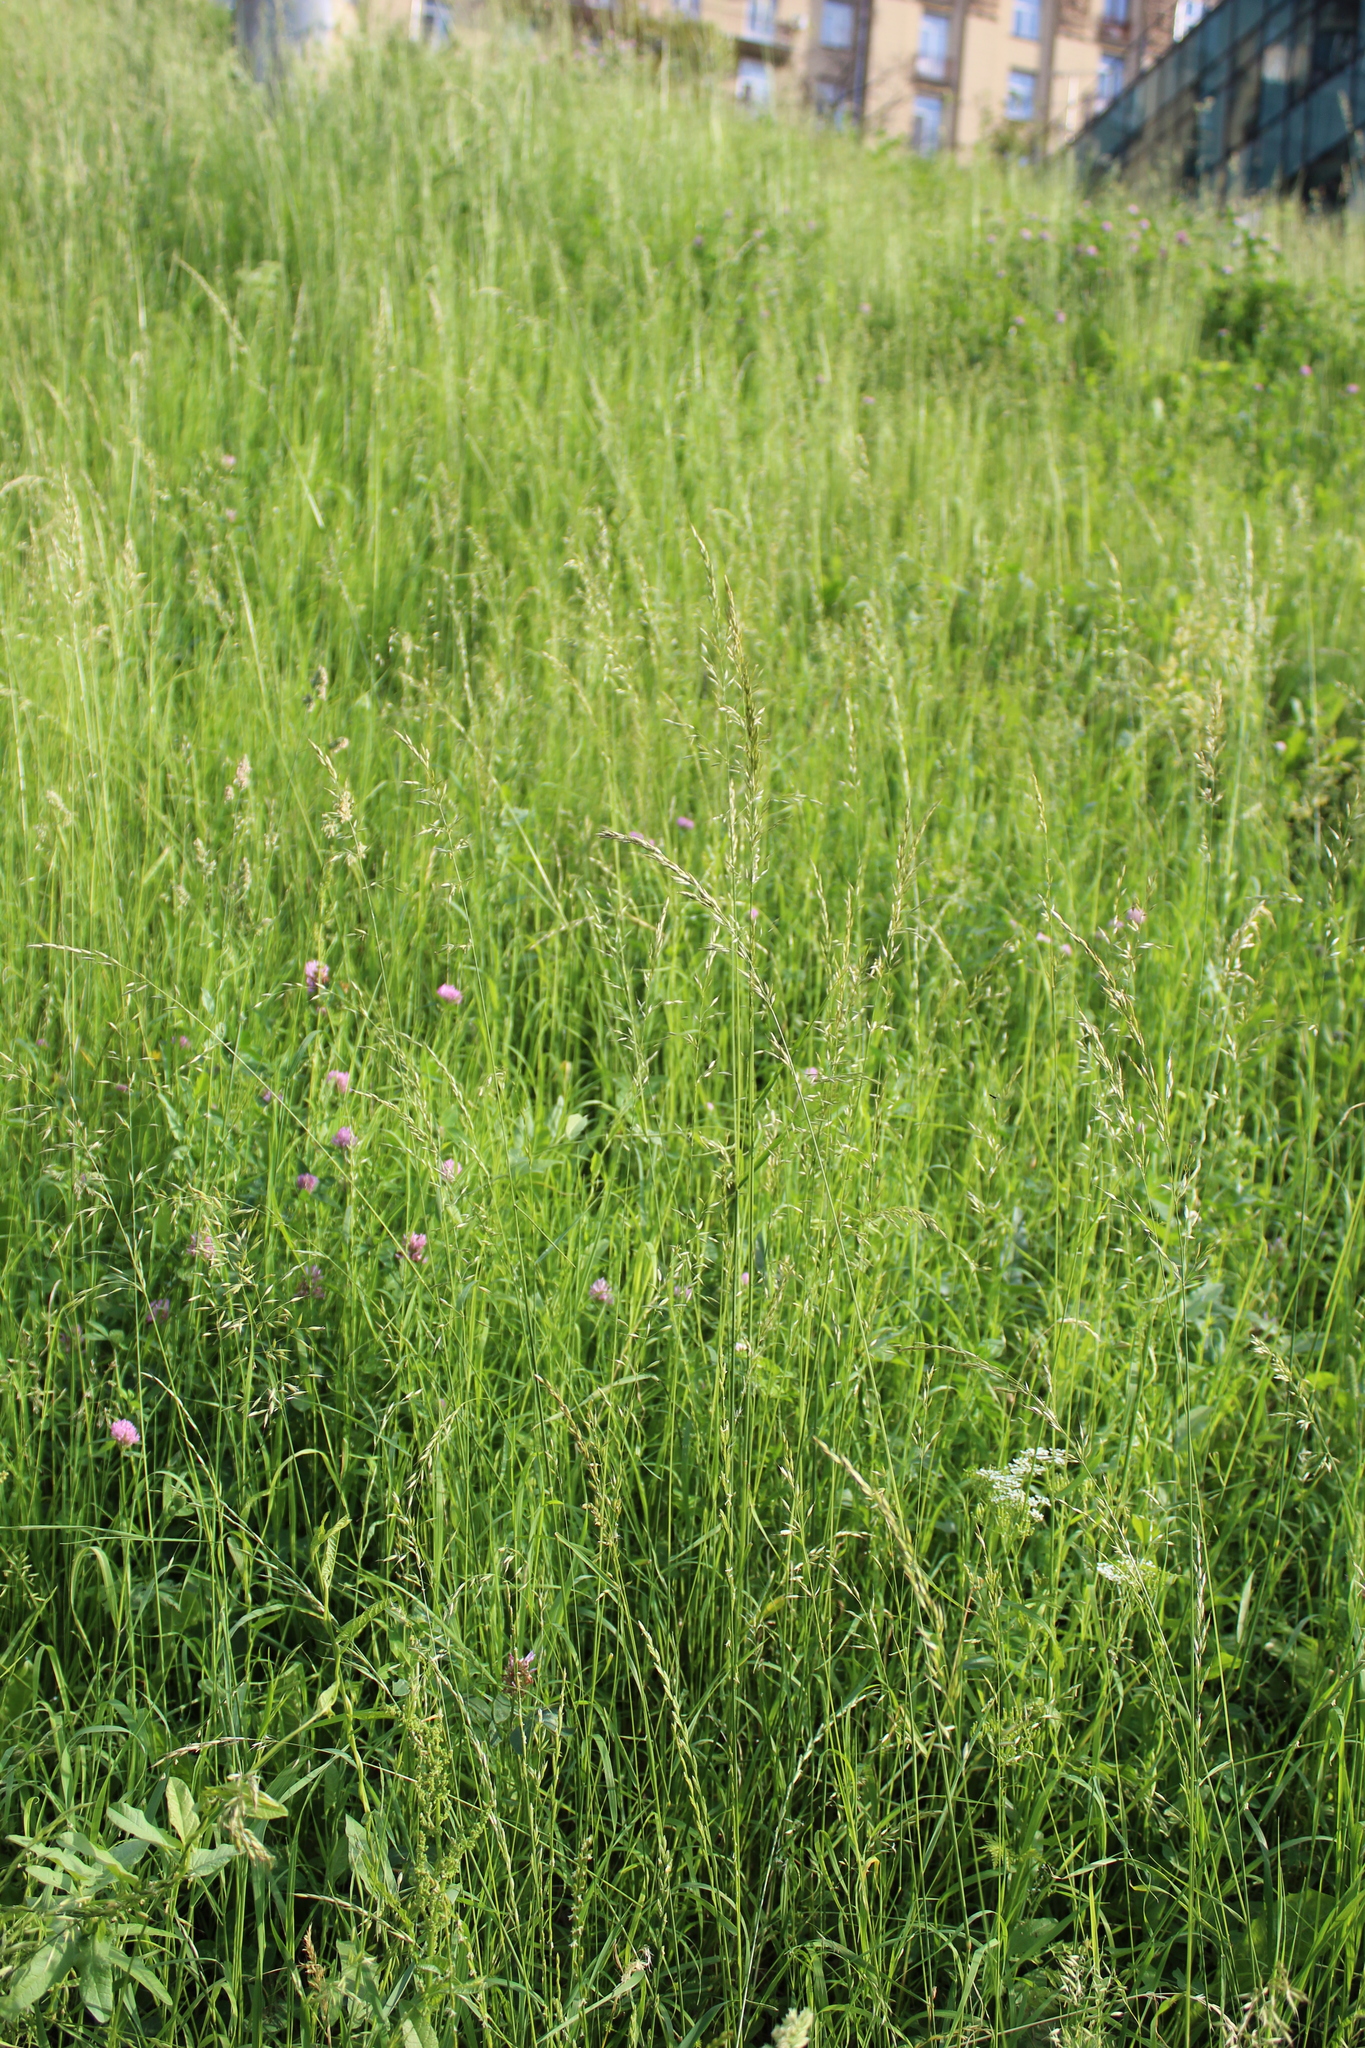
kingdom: Plantae
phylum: Tracheophyta
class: Liliopsida
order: Poales
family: Poaceae
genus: Arrhenatherum
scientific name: Arrhenatherum elatius
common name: Tall oatgrass
